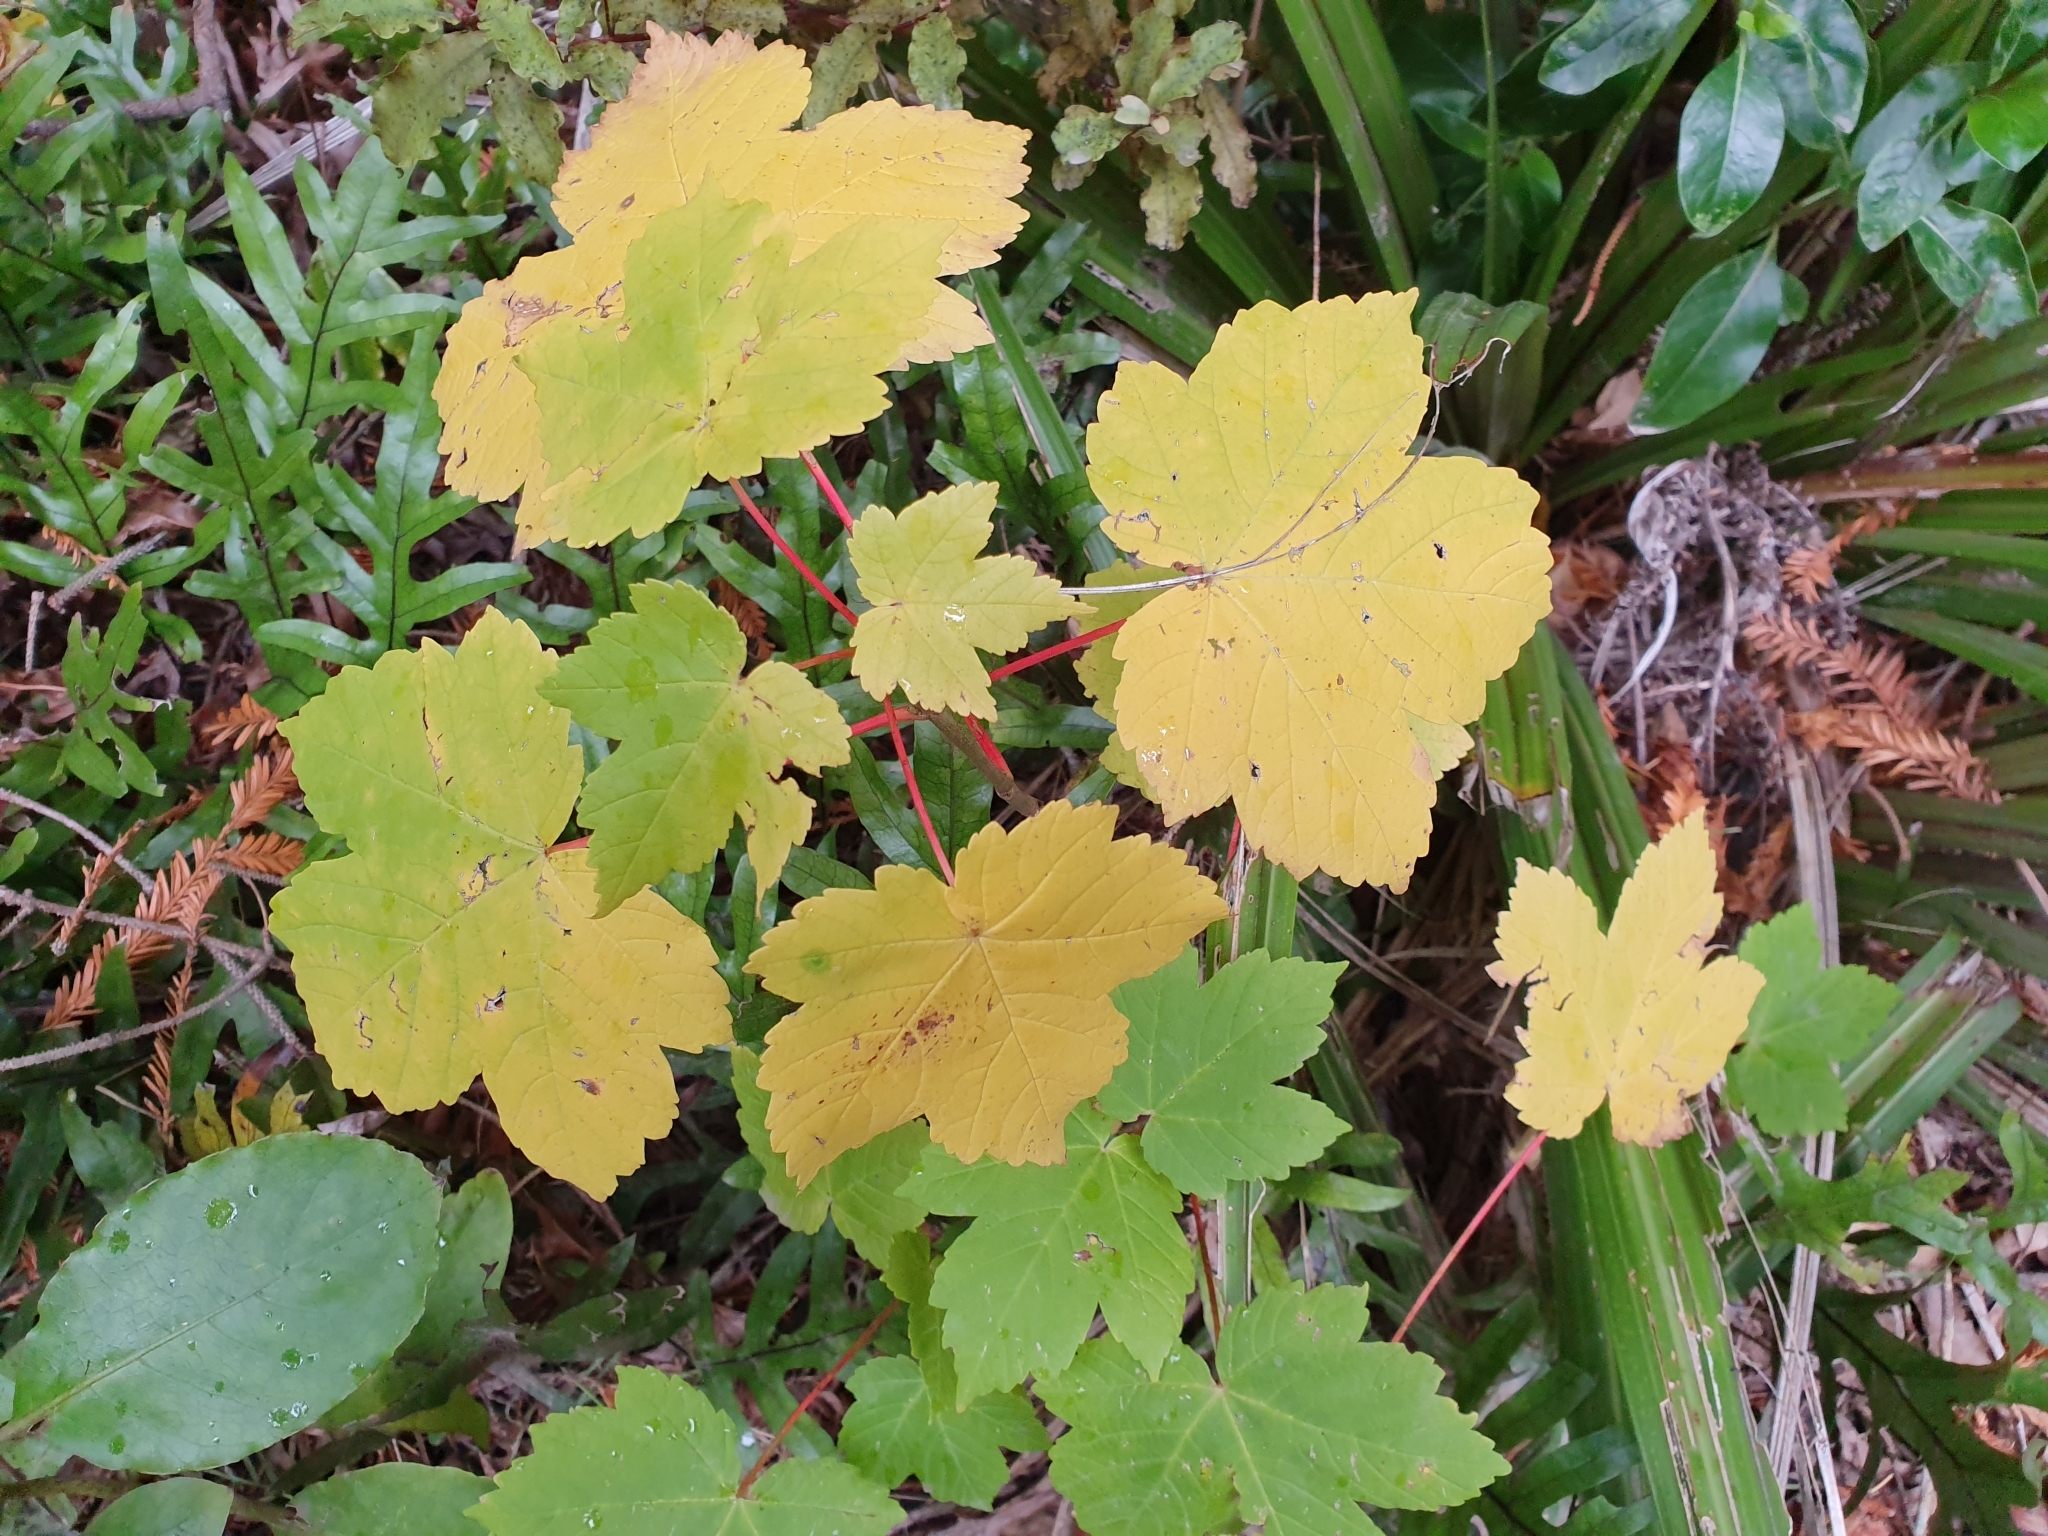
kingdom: Plantae
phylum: Tracheophyta
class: Magnoliopsida
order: Sapindales
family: Sapindaceae
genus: Acer
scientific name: Acer pseudoplatanus
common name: Sycamore
